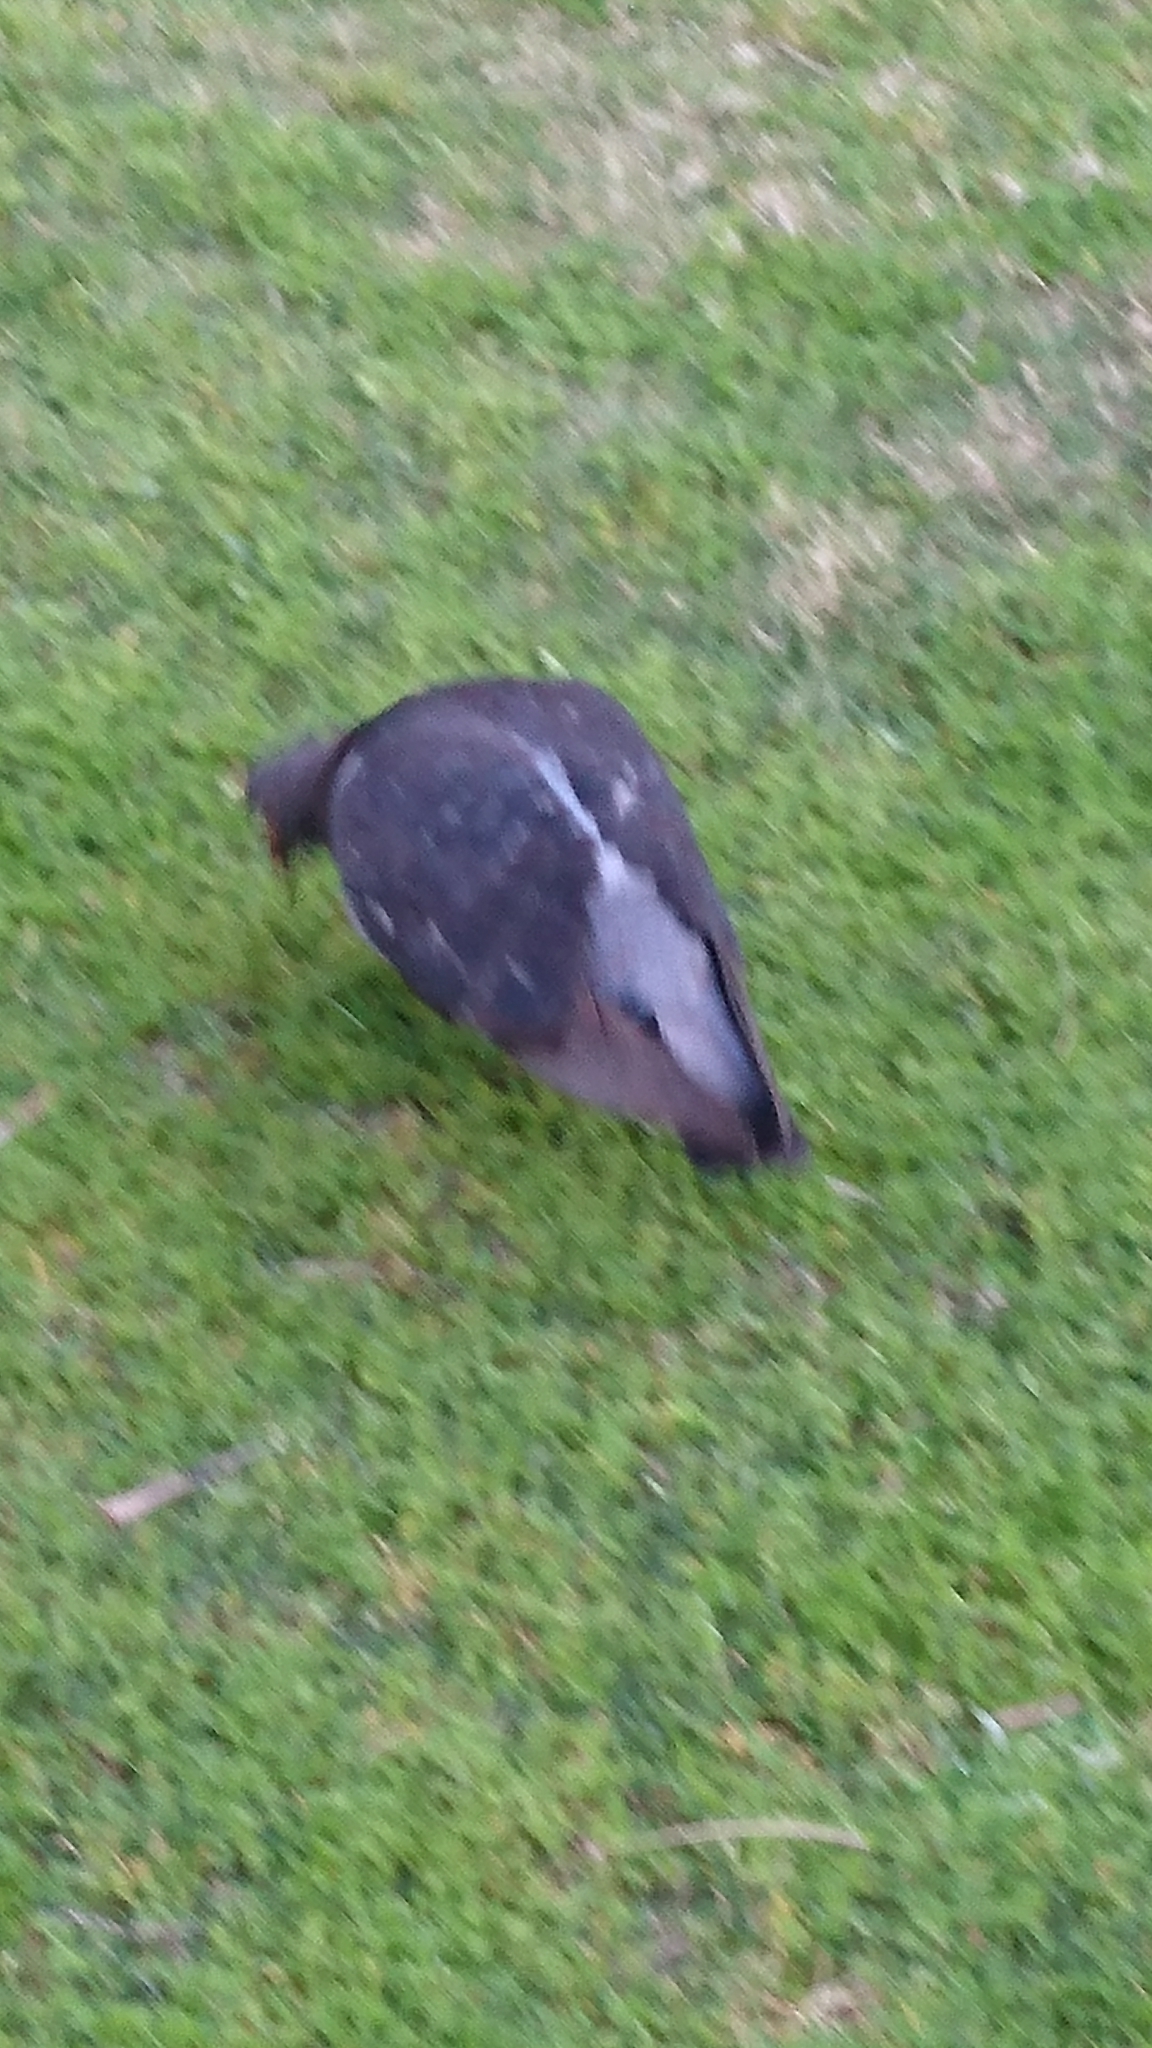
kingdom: Animalia
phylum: Chordata
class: Aves
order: Columbiformes
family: Columbidae
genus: Columba
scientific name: Columba livia
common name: Rock pigeon
